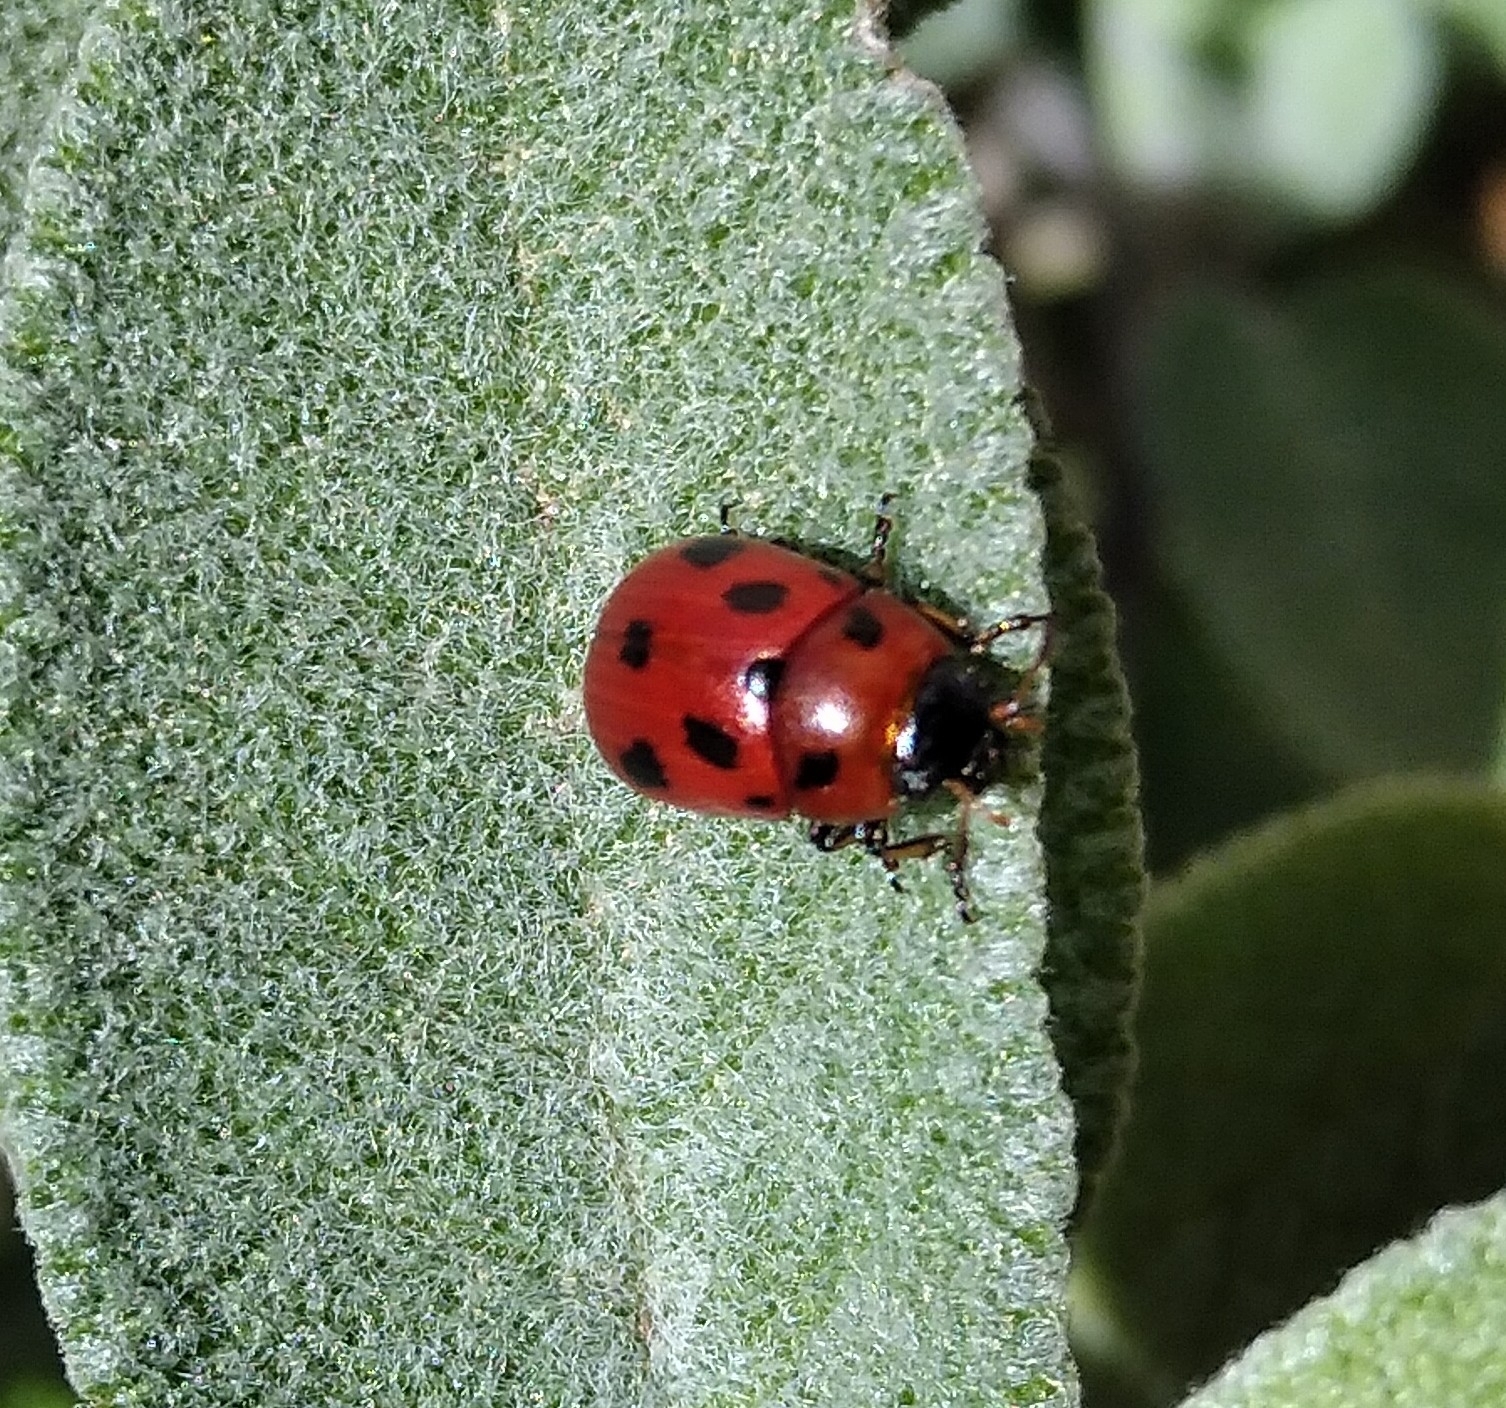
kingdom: Animalia
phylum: Arthropoda
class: Insecta
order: Coleoptera
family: Chrysomelidae
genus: Gonioctena
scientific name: Gonioctena fornicata
